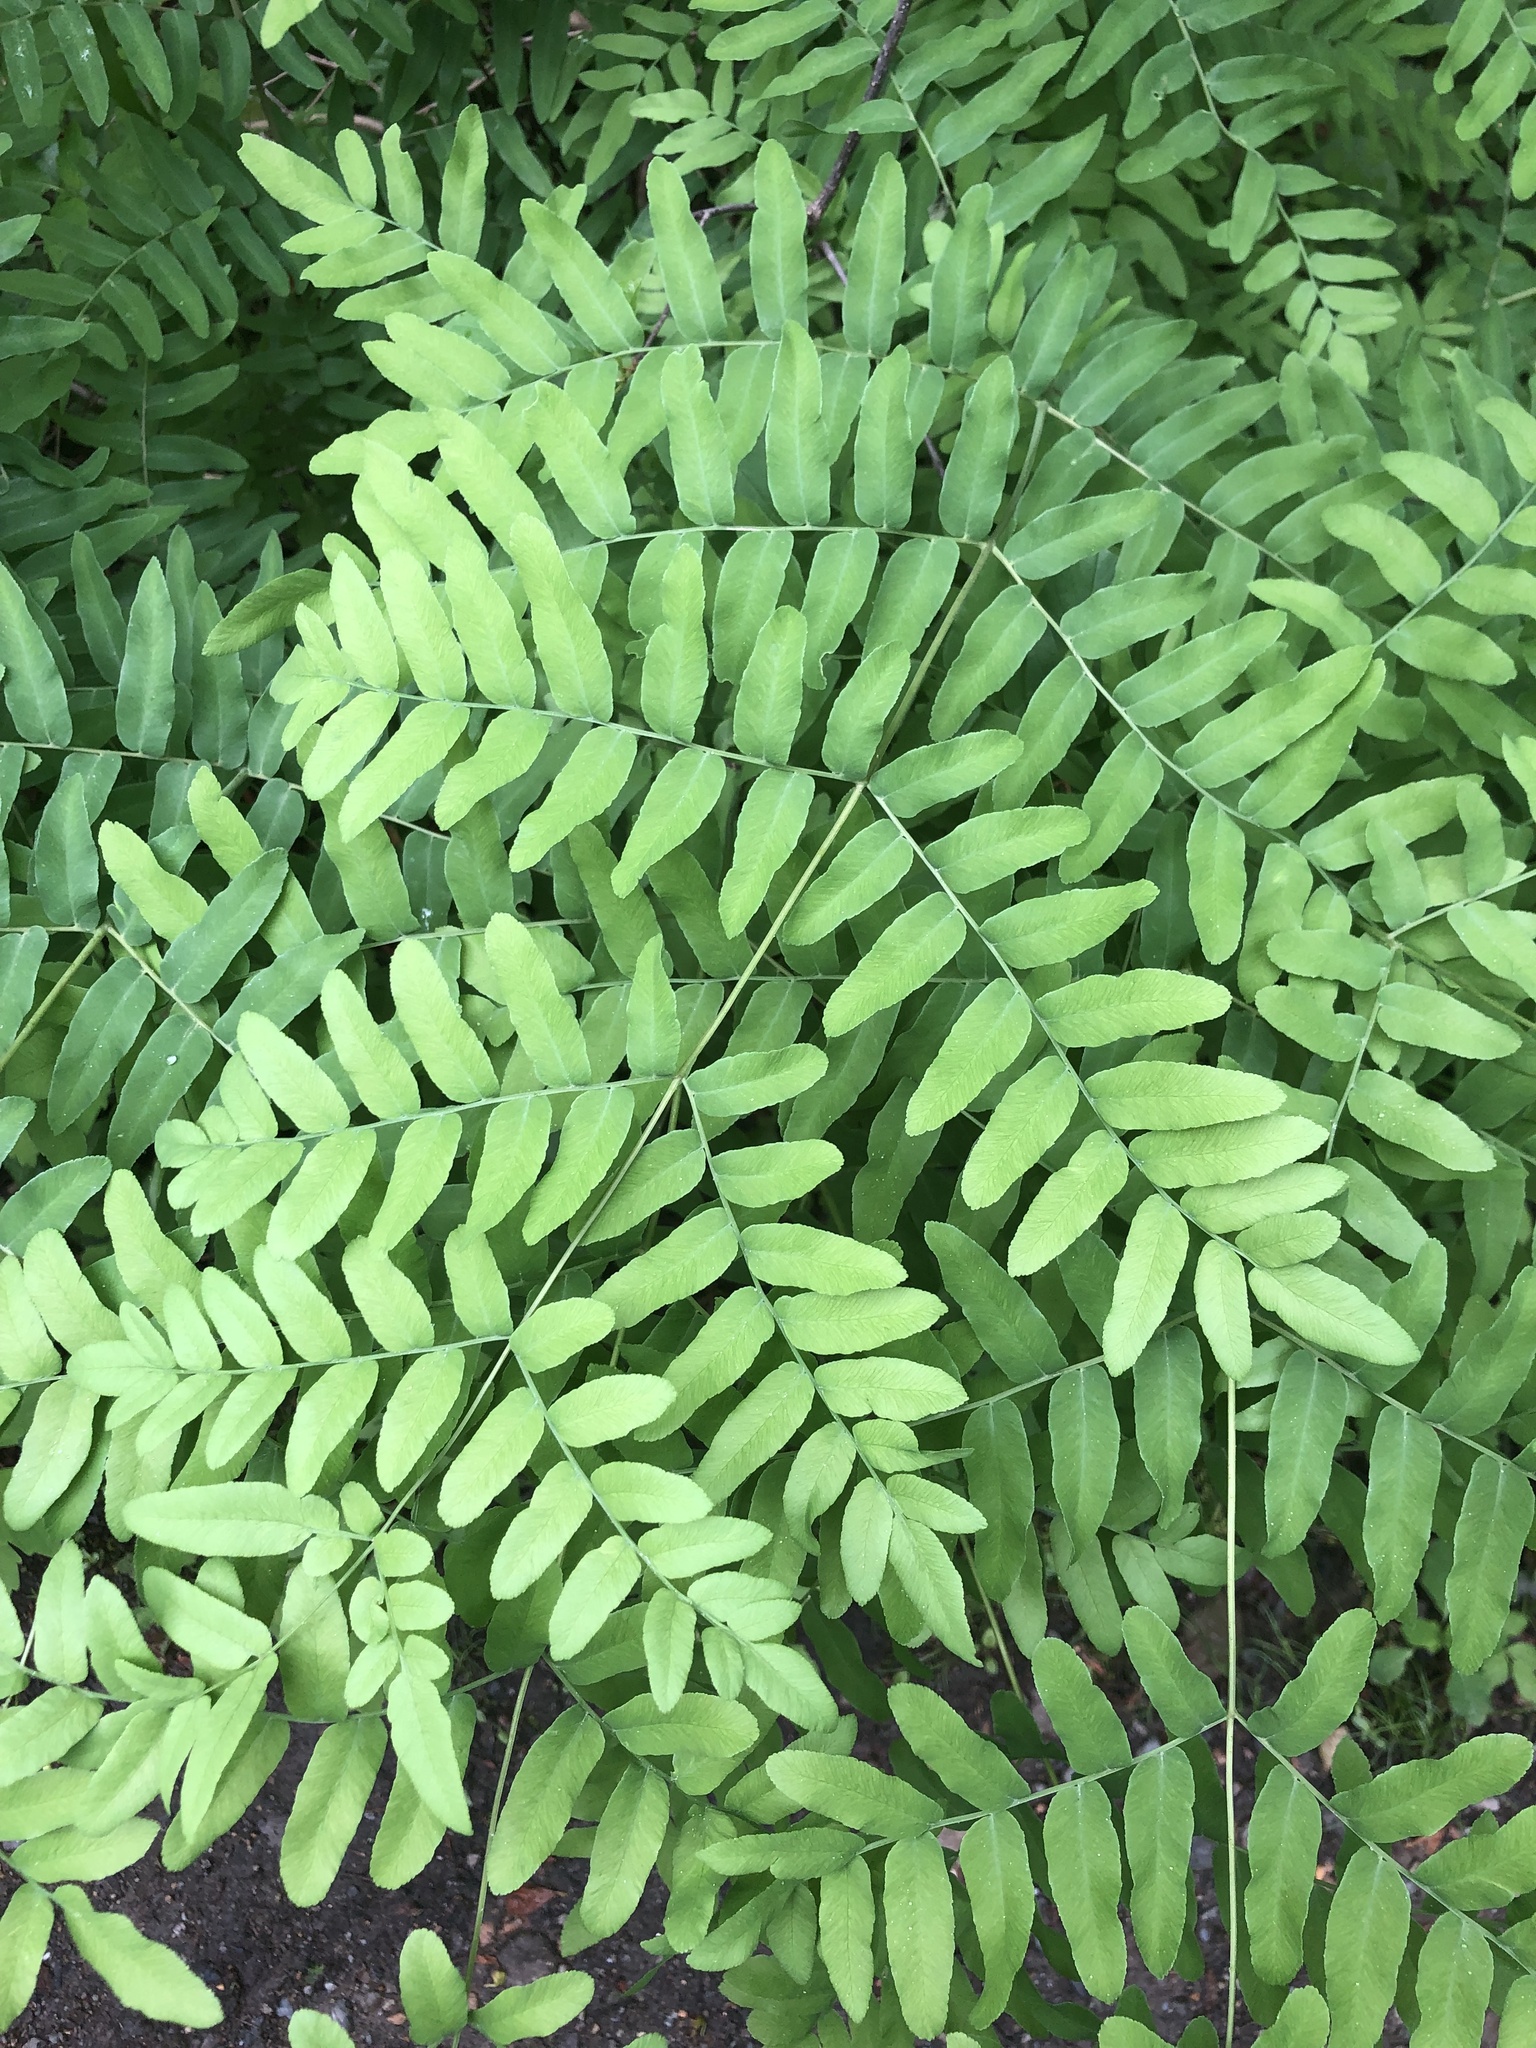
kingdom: Plantae
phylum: Tracheophyta
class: Polypodiopsida
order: Osmundales
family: Osmundaceae
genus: Osmunda
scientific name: Osmunda spectabilis
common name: American royal fern
